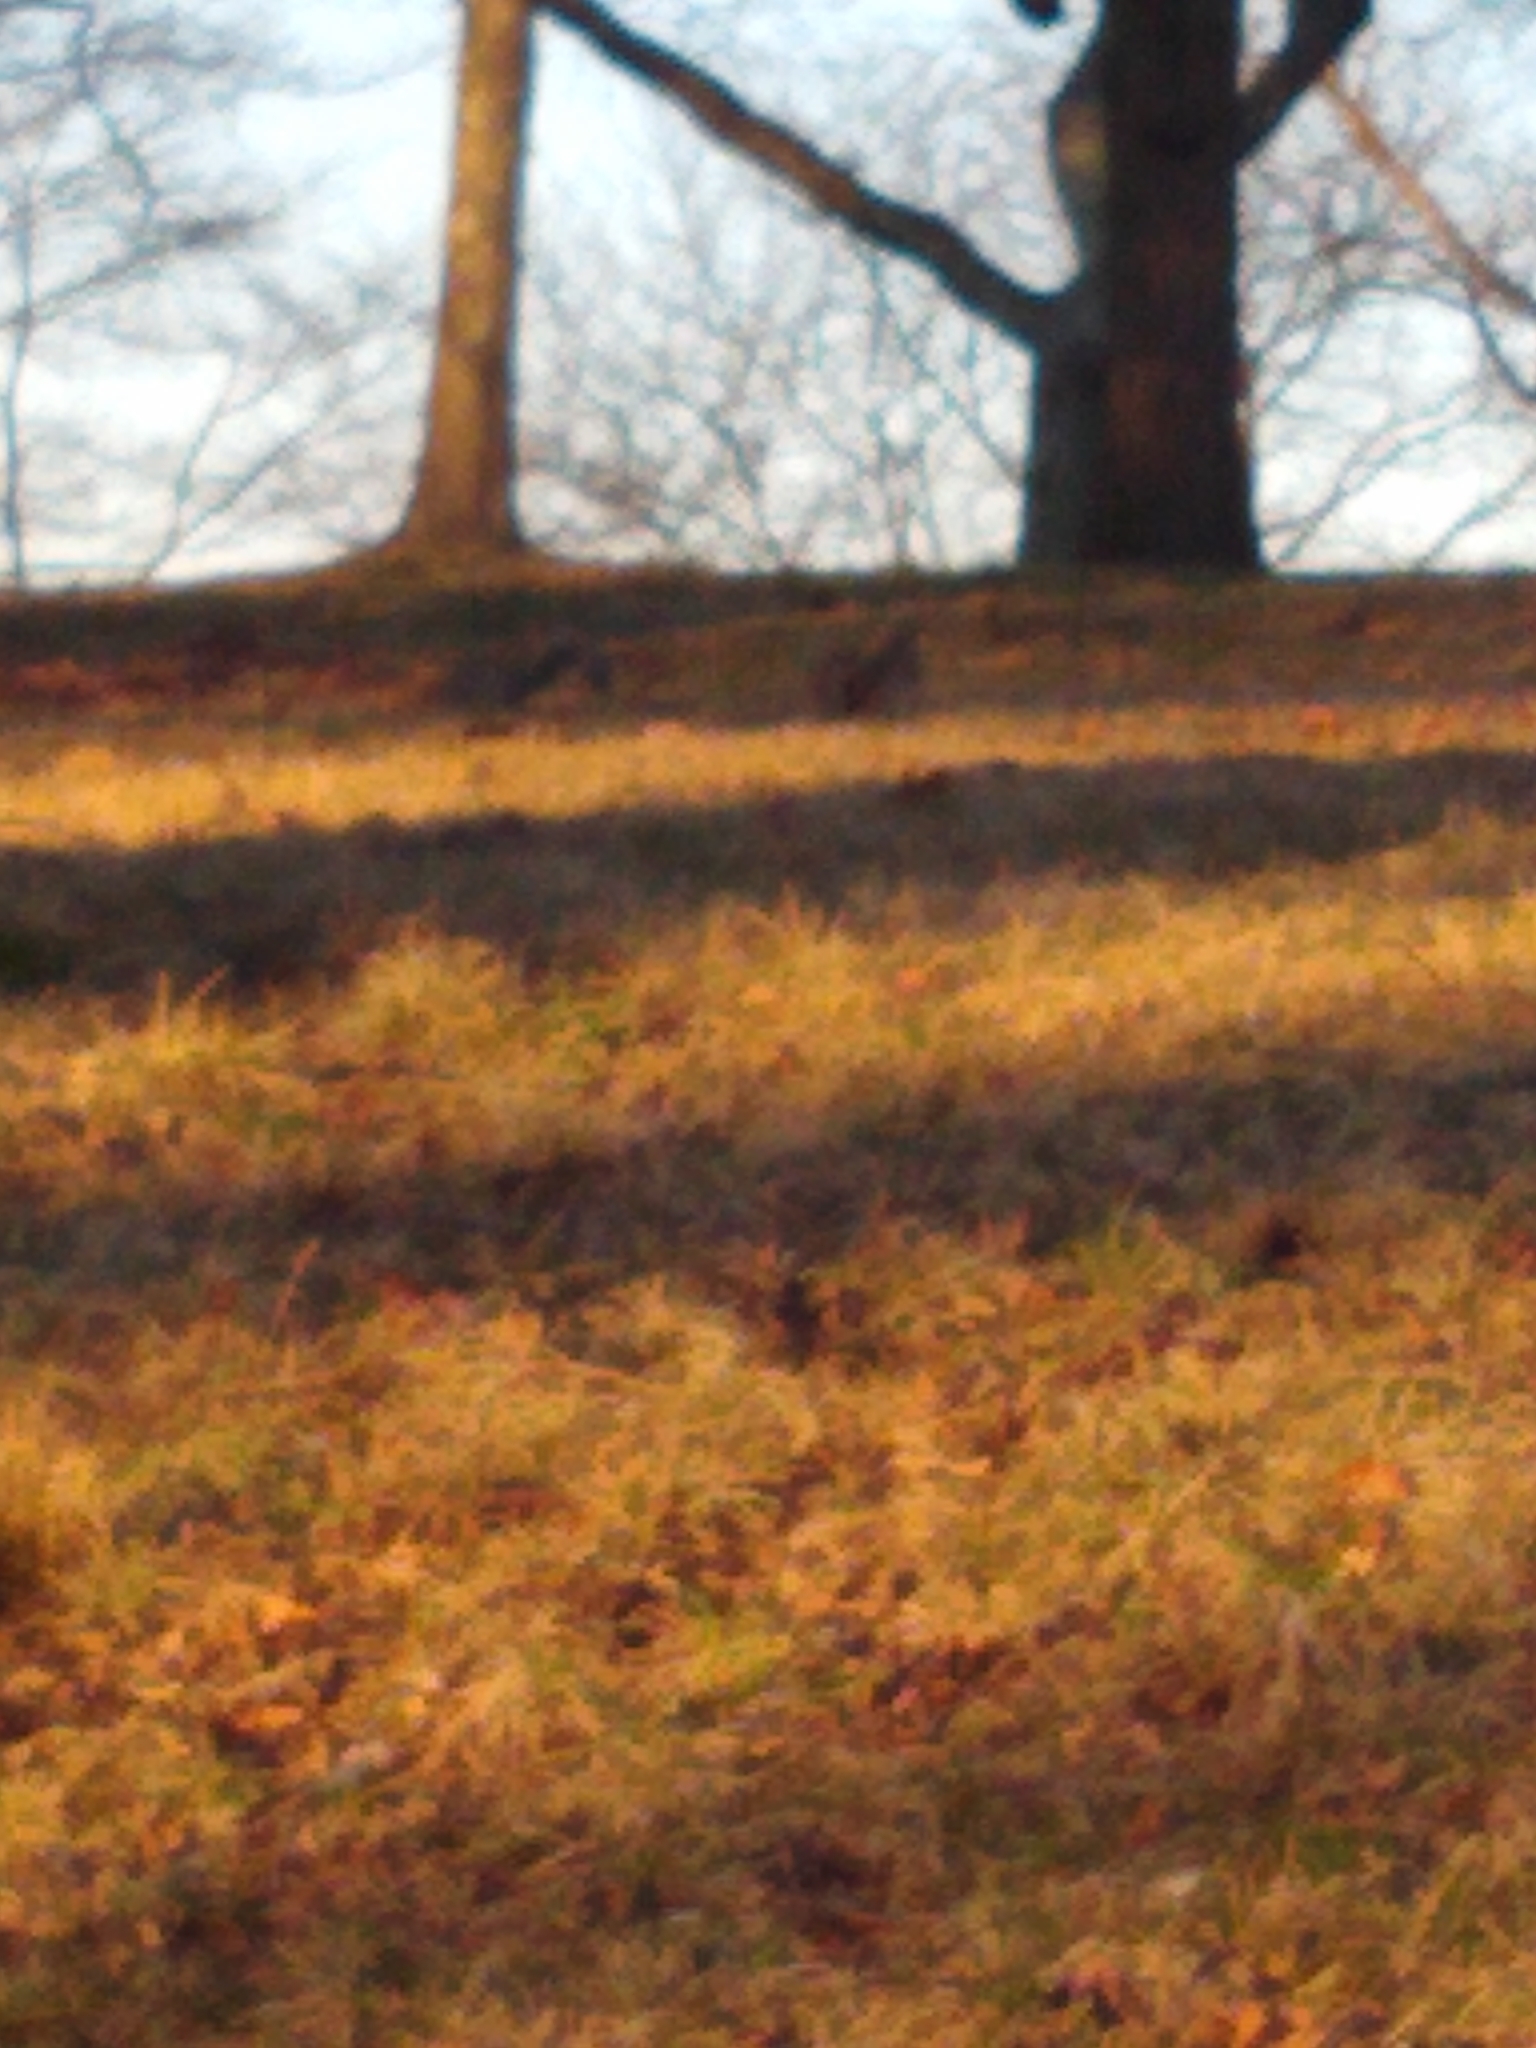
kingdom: Animalia
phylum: Chordata
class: Mammalia
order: Rodentia
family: Sciuridae
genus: Sciurus
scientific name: Sciurus carolinensis
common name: Eastern gray squirrel
